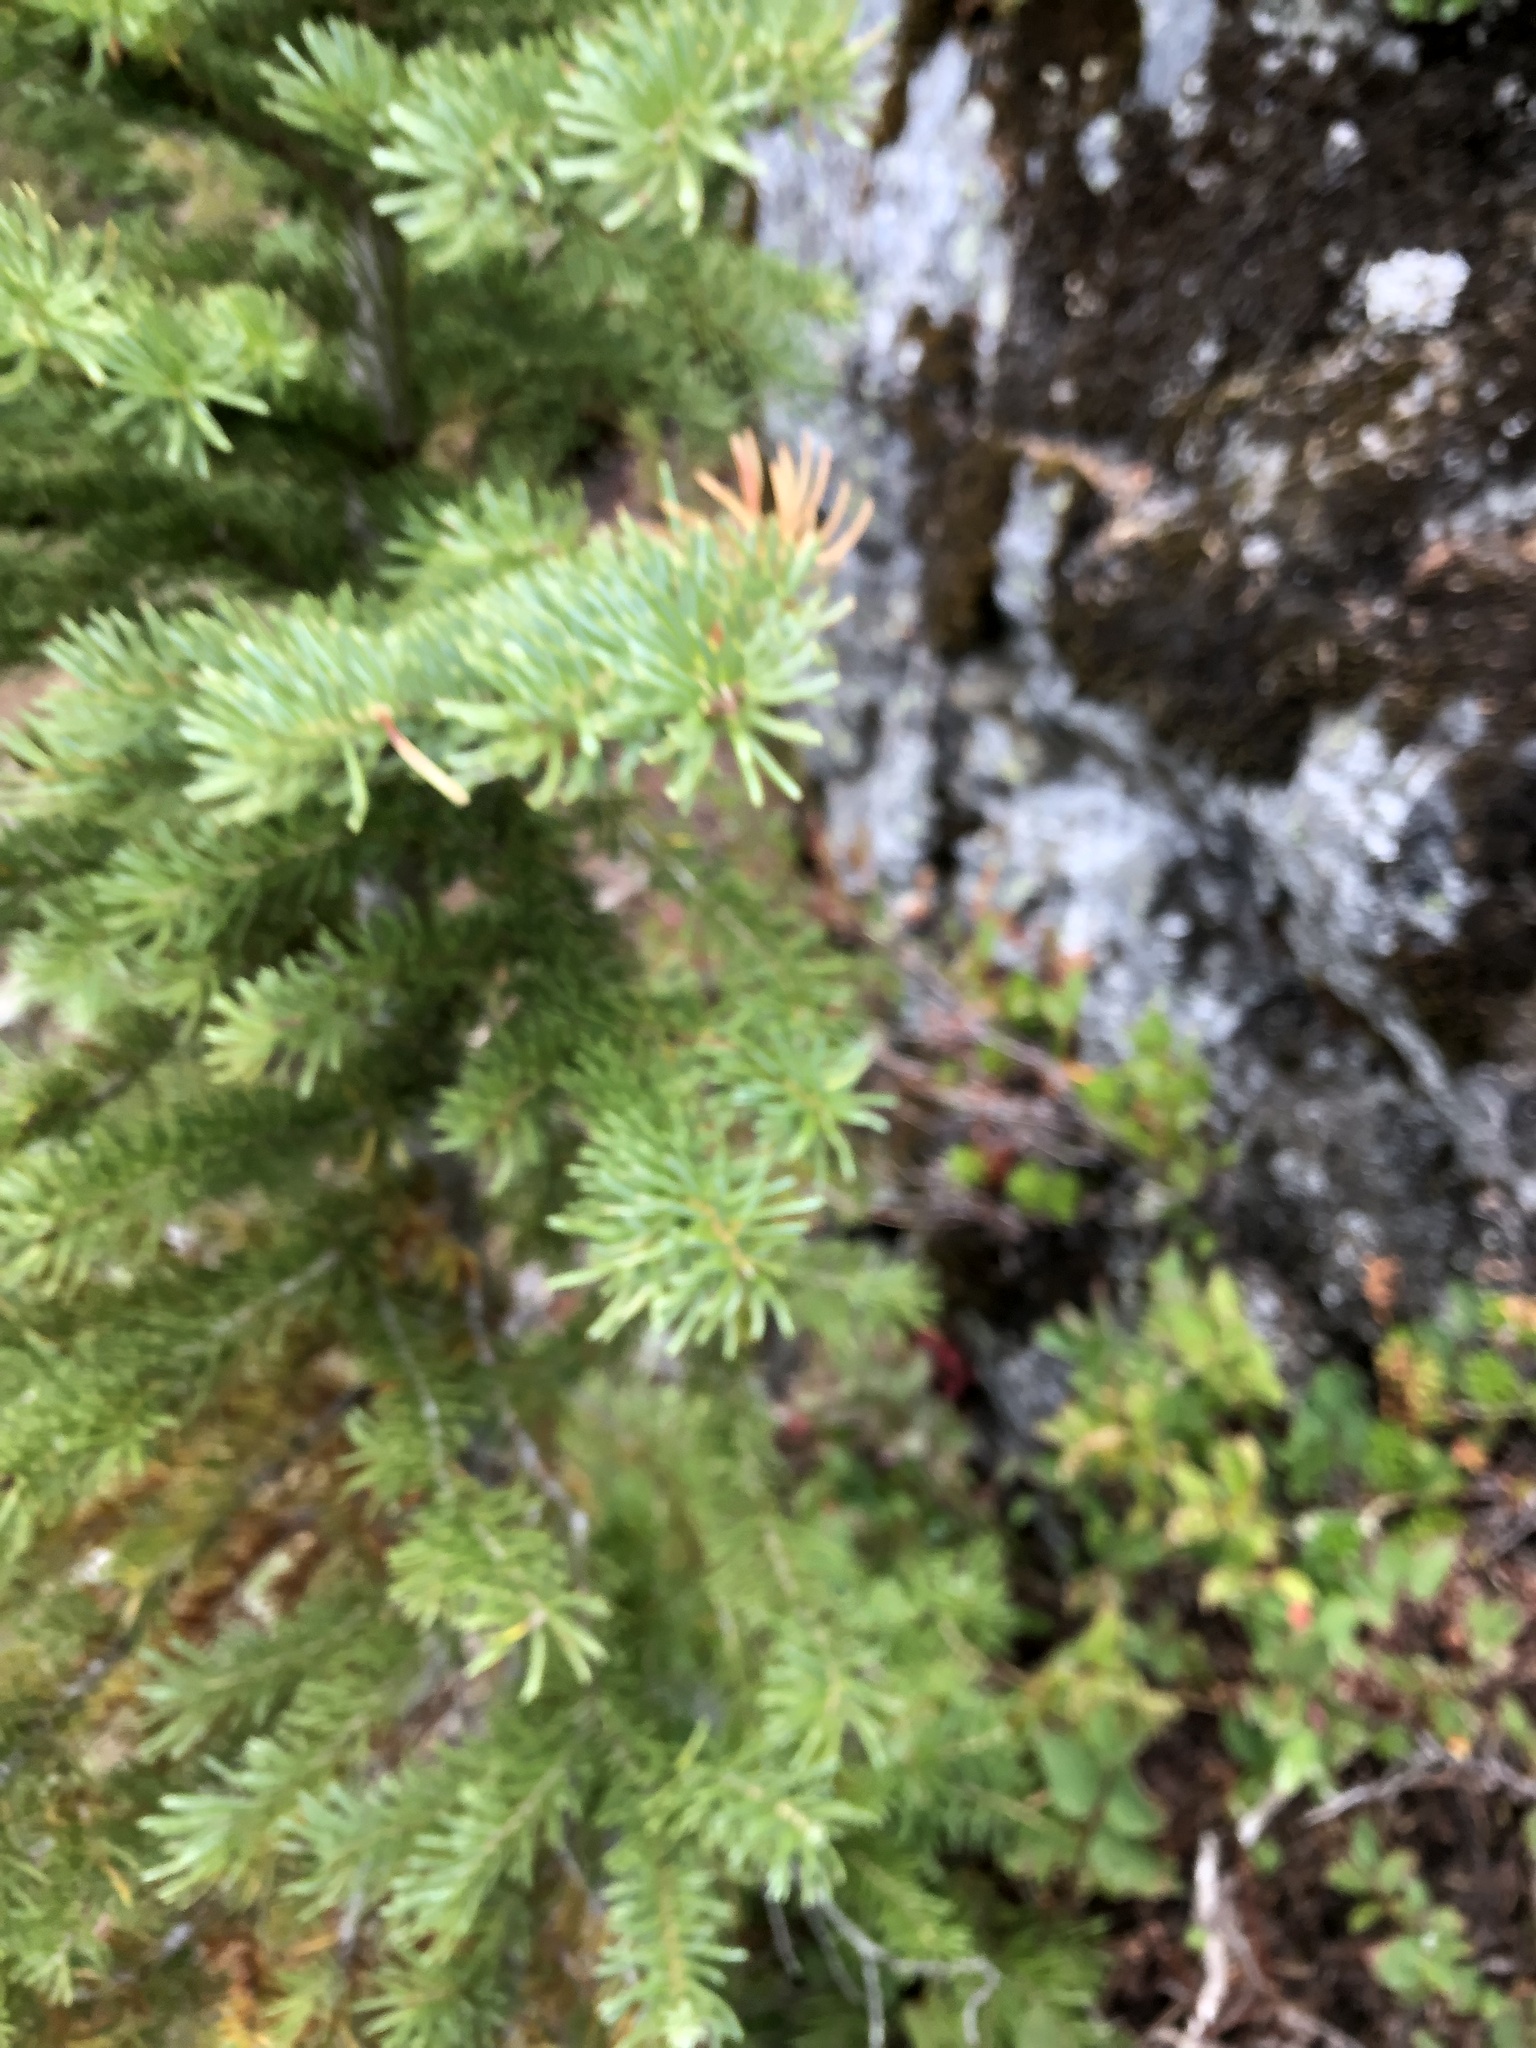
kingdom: Plantae
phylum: Tracheophyta
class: Pinopsida
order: Pinales
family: Pinaceae
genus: Abies
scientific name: Abies lasiocarpa
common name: Subalpine fir
